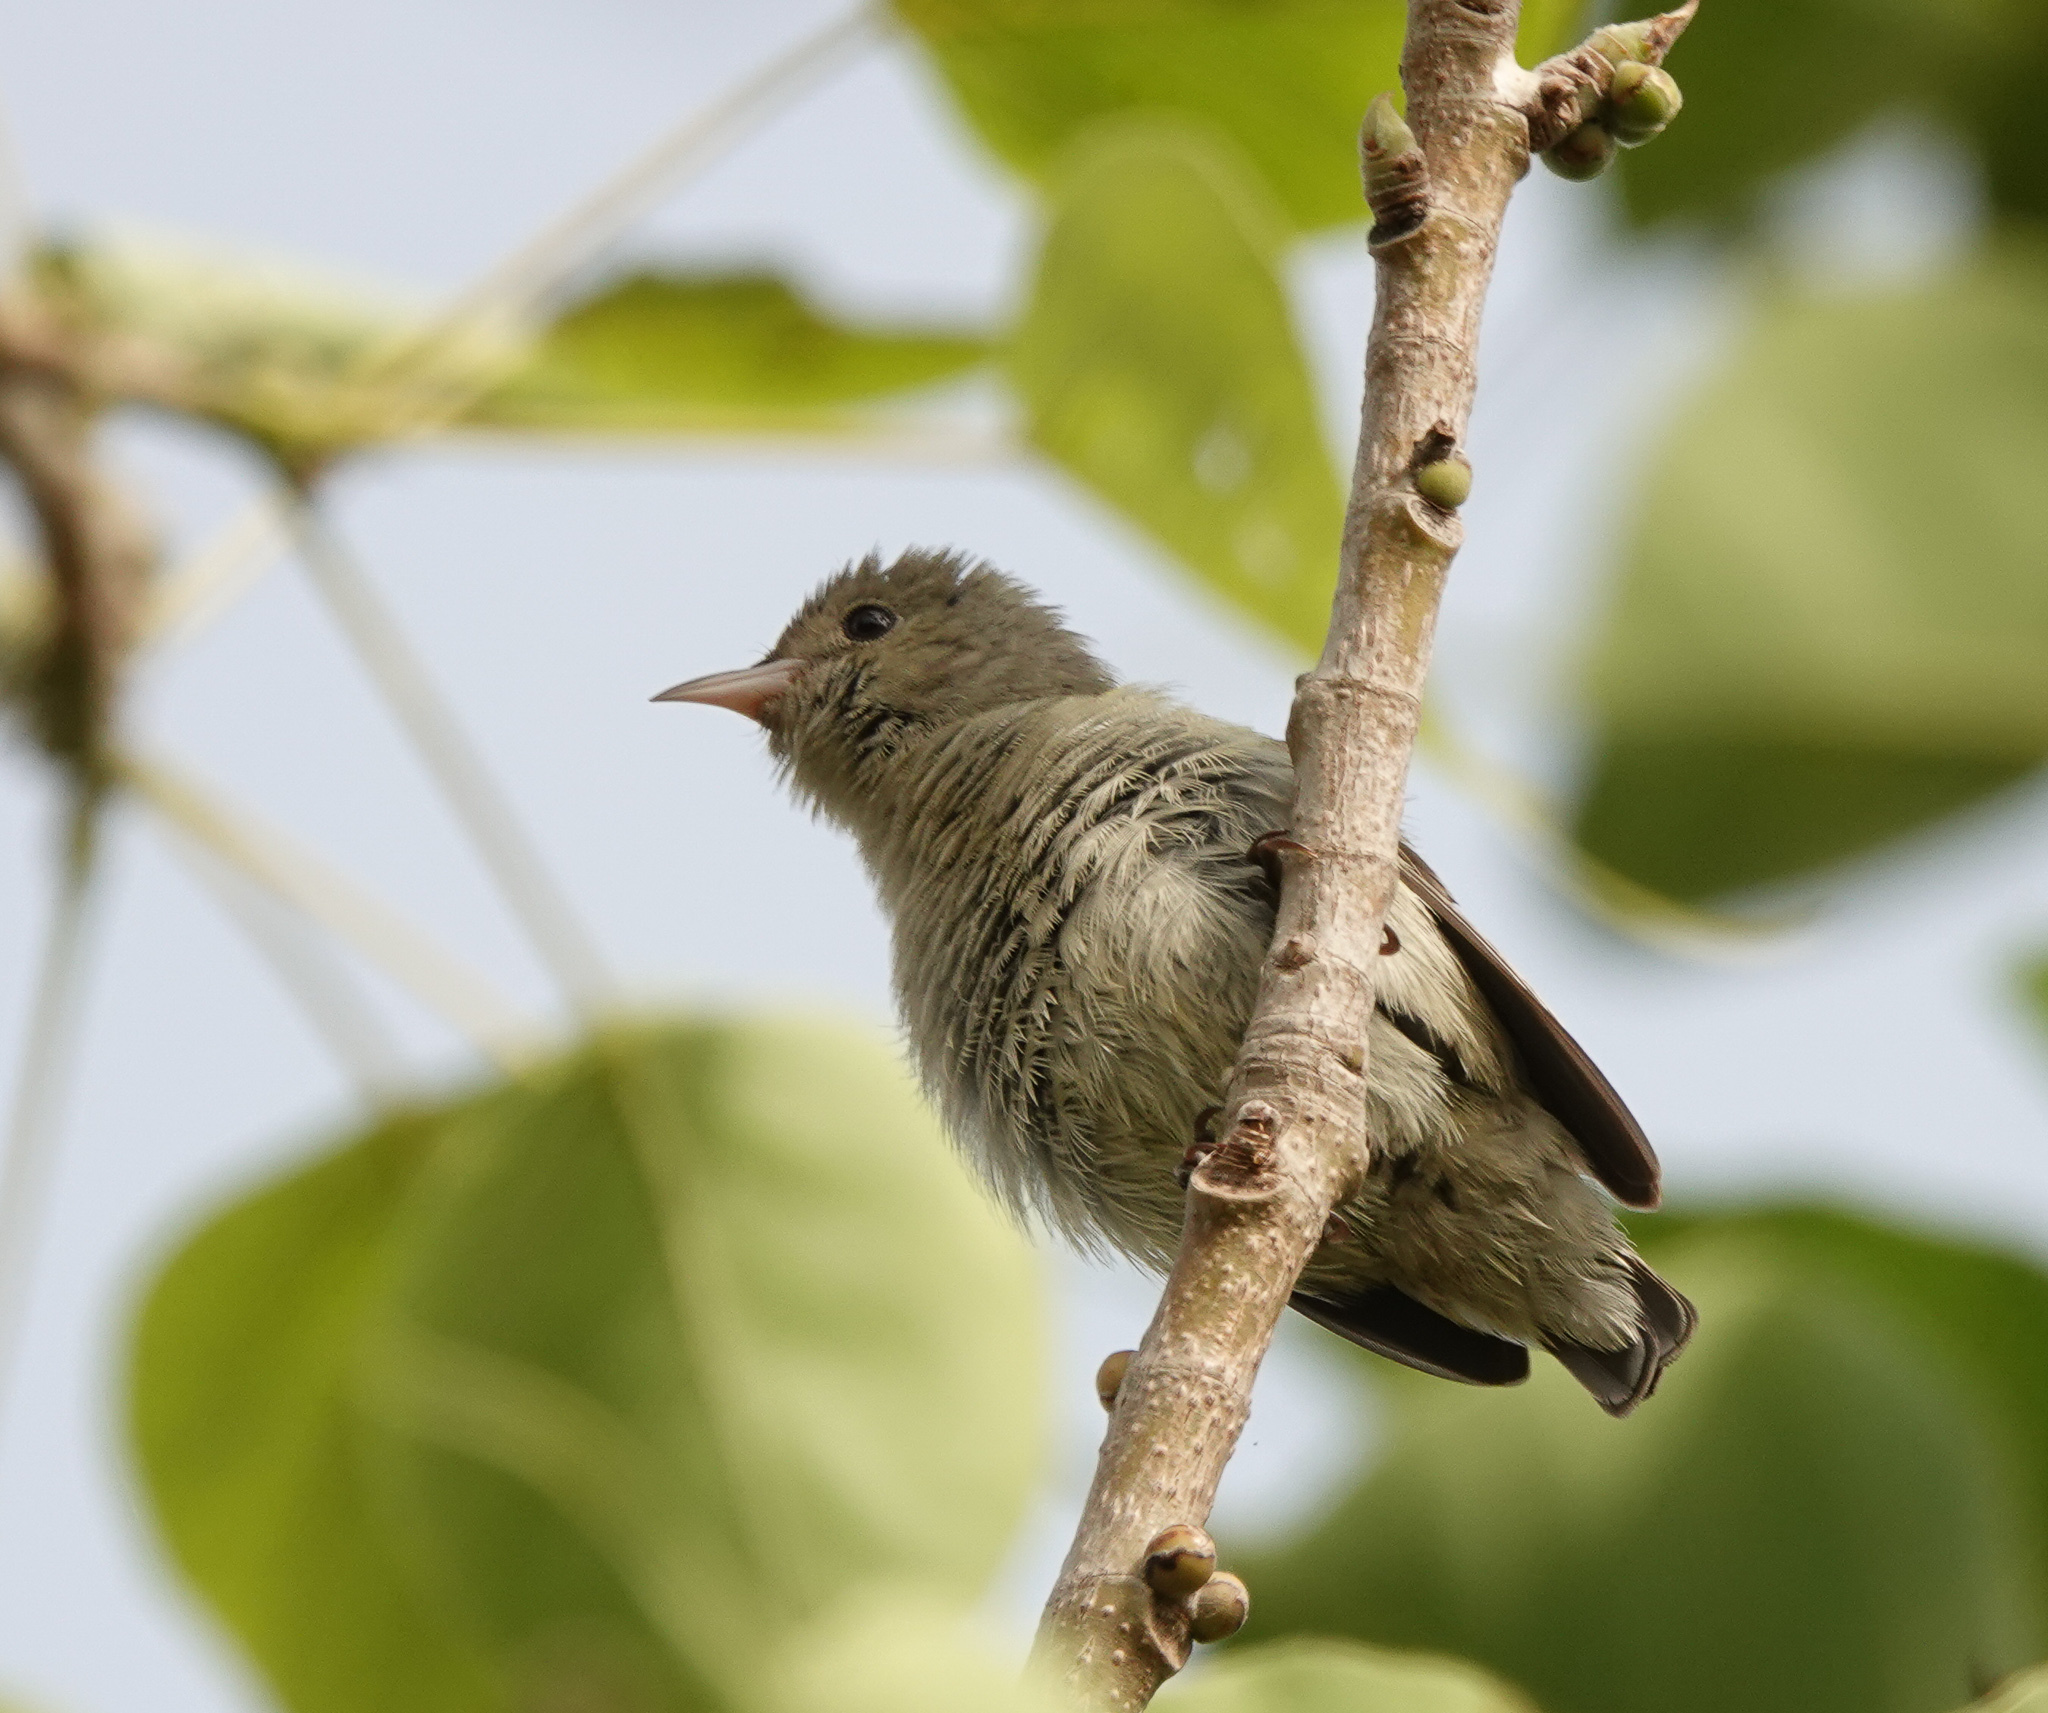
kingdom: Animalia
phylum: Chordata
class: Aves
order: Passeriformes
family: Dicaeidae
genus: Dicaeum
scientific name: Dicaeum erythrorhynchos
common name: Pale-billed flowerpecker
